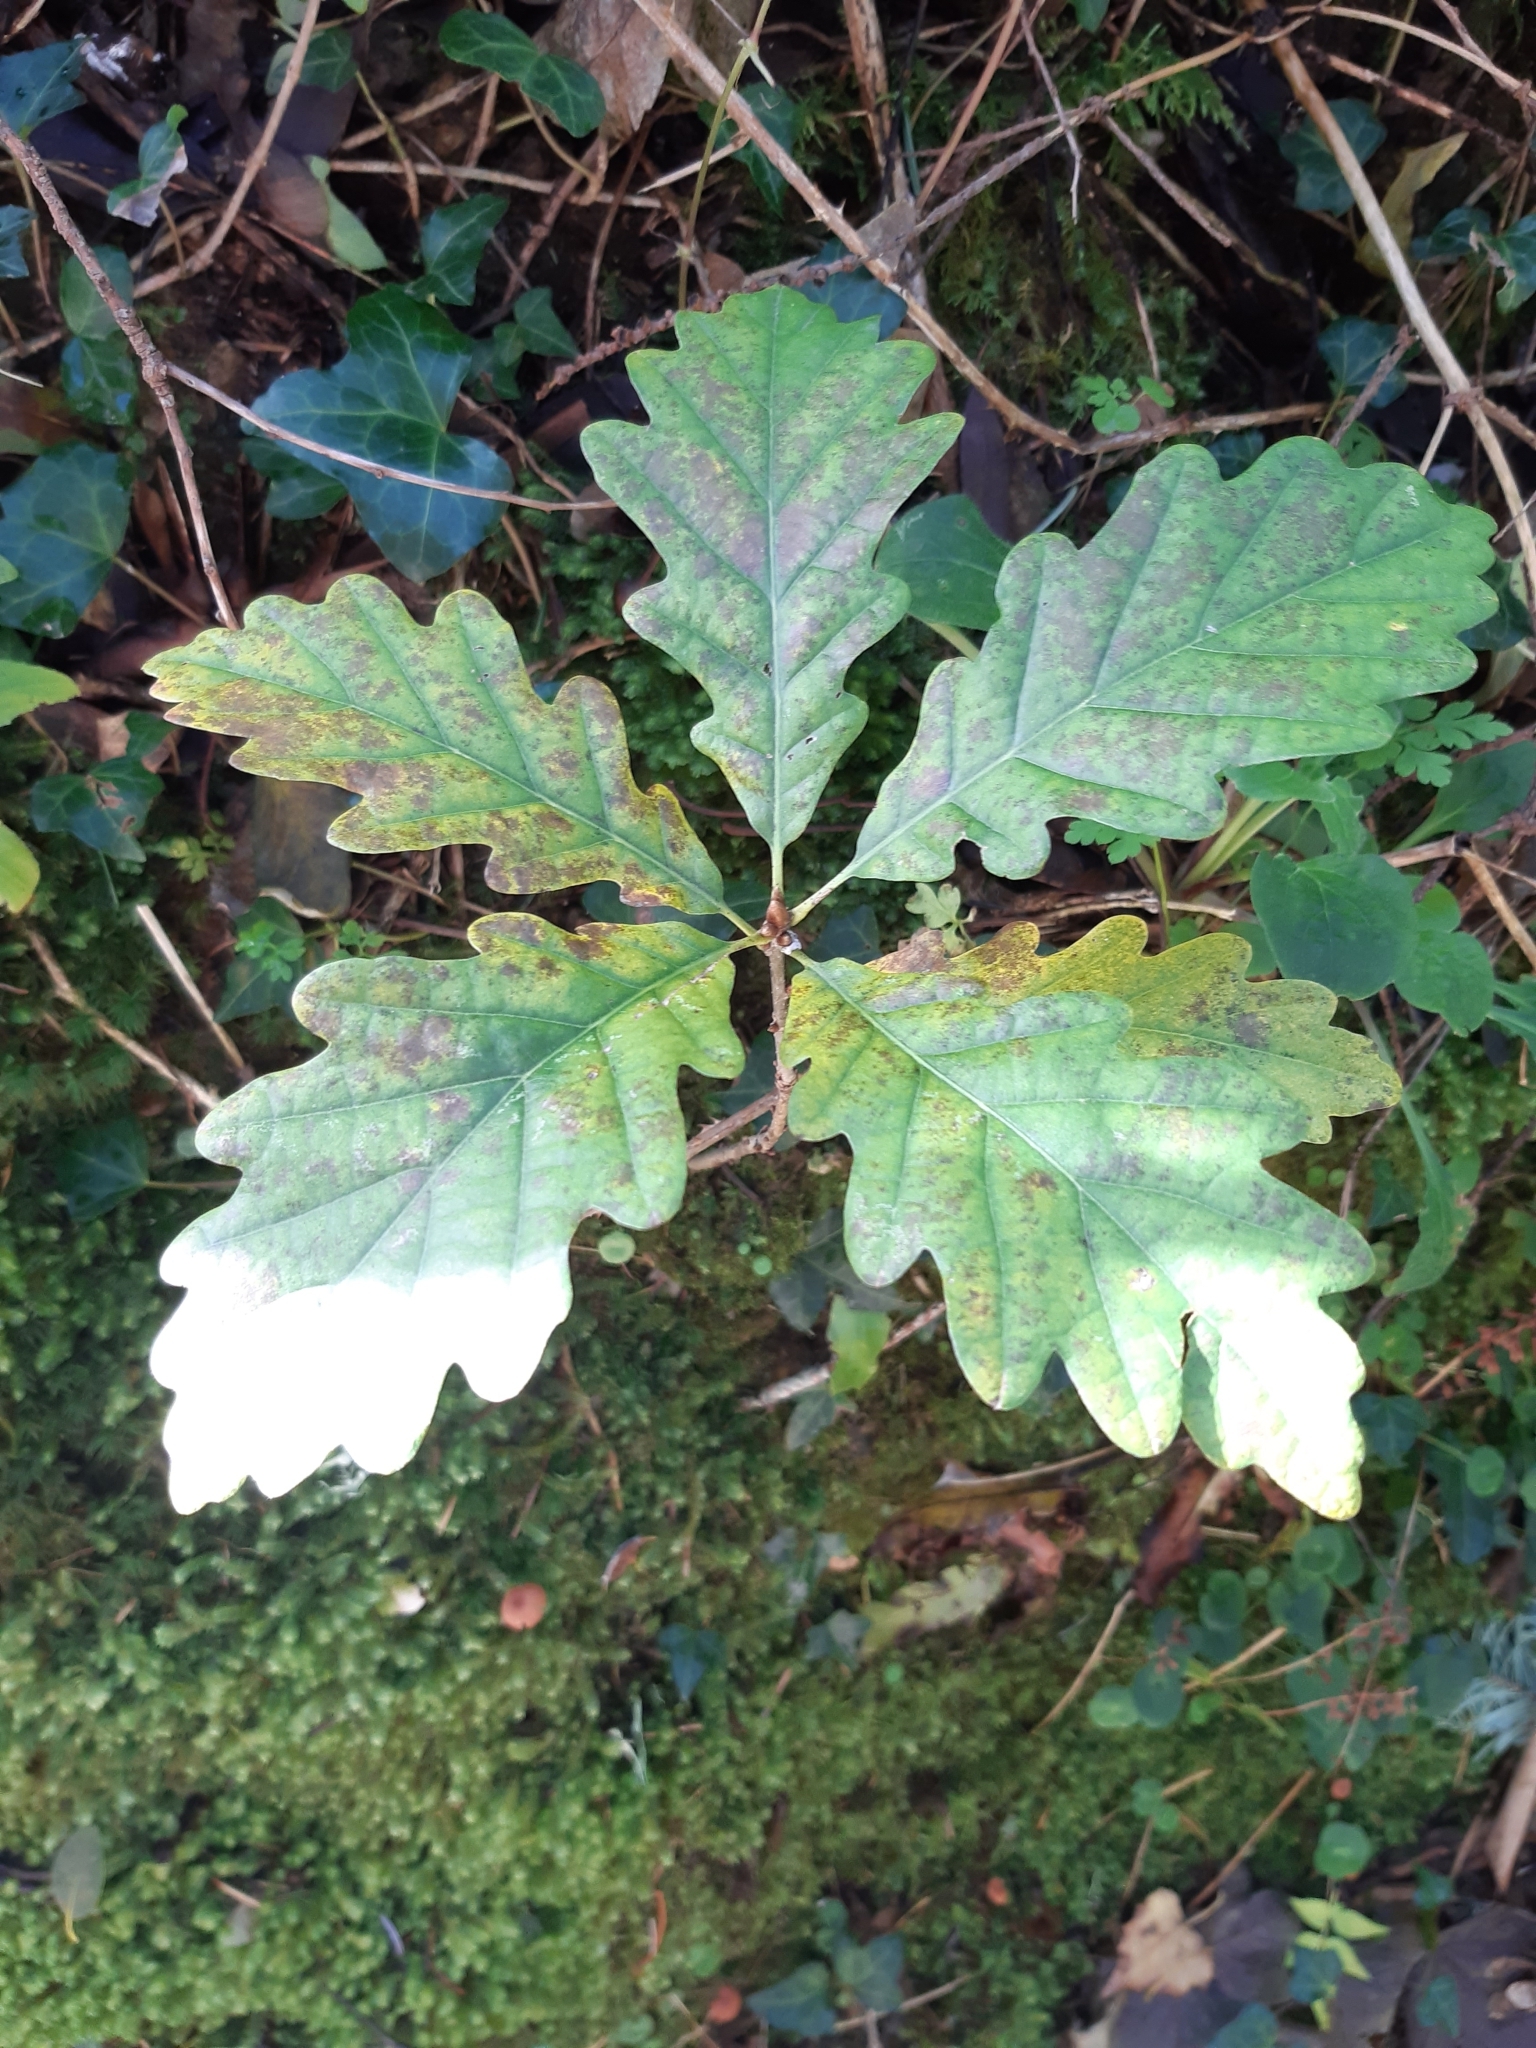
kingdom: Plantae
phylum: Tracheophyta
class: Magnoliopsida
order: Fagales
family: Fagaceae
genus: Quercus
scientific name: Quercus petraea
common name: Sessile oak
